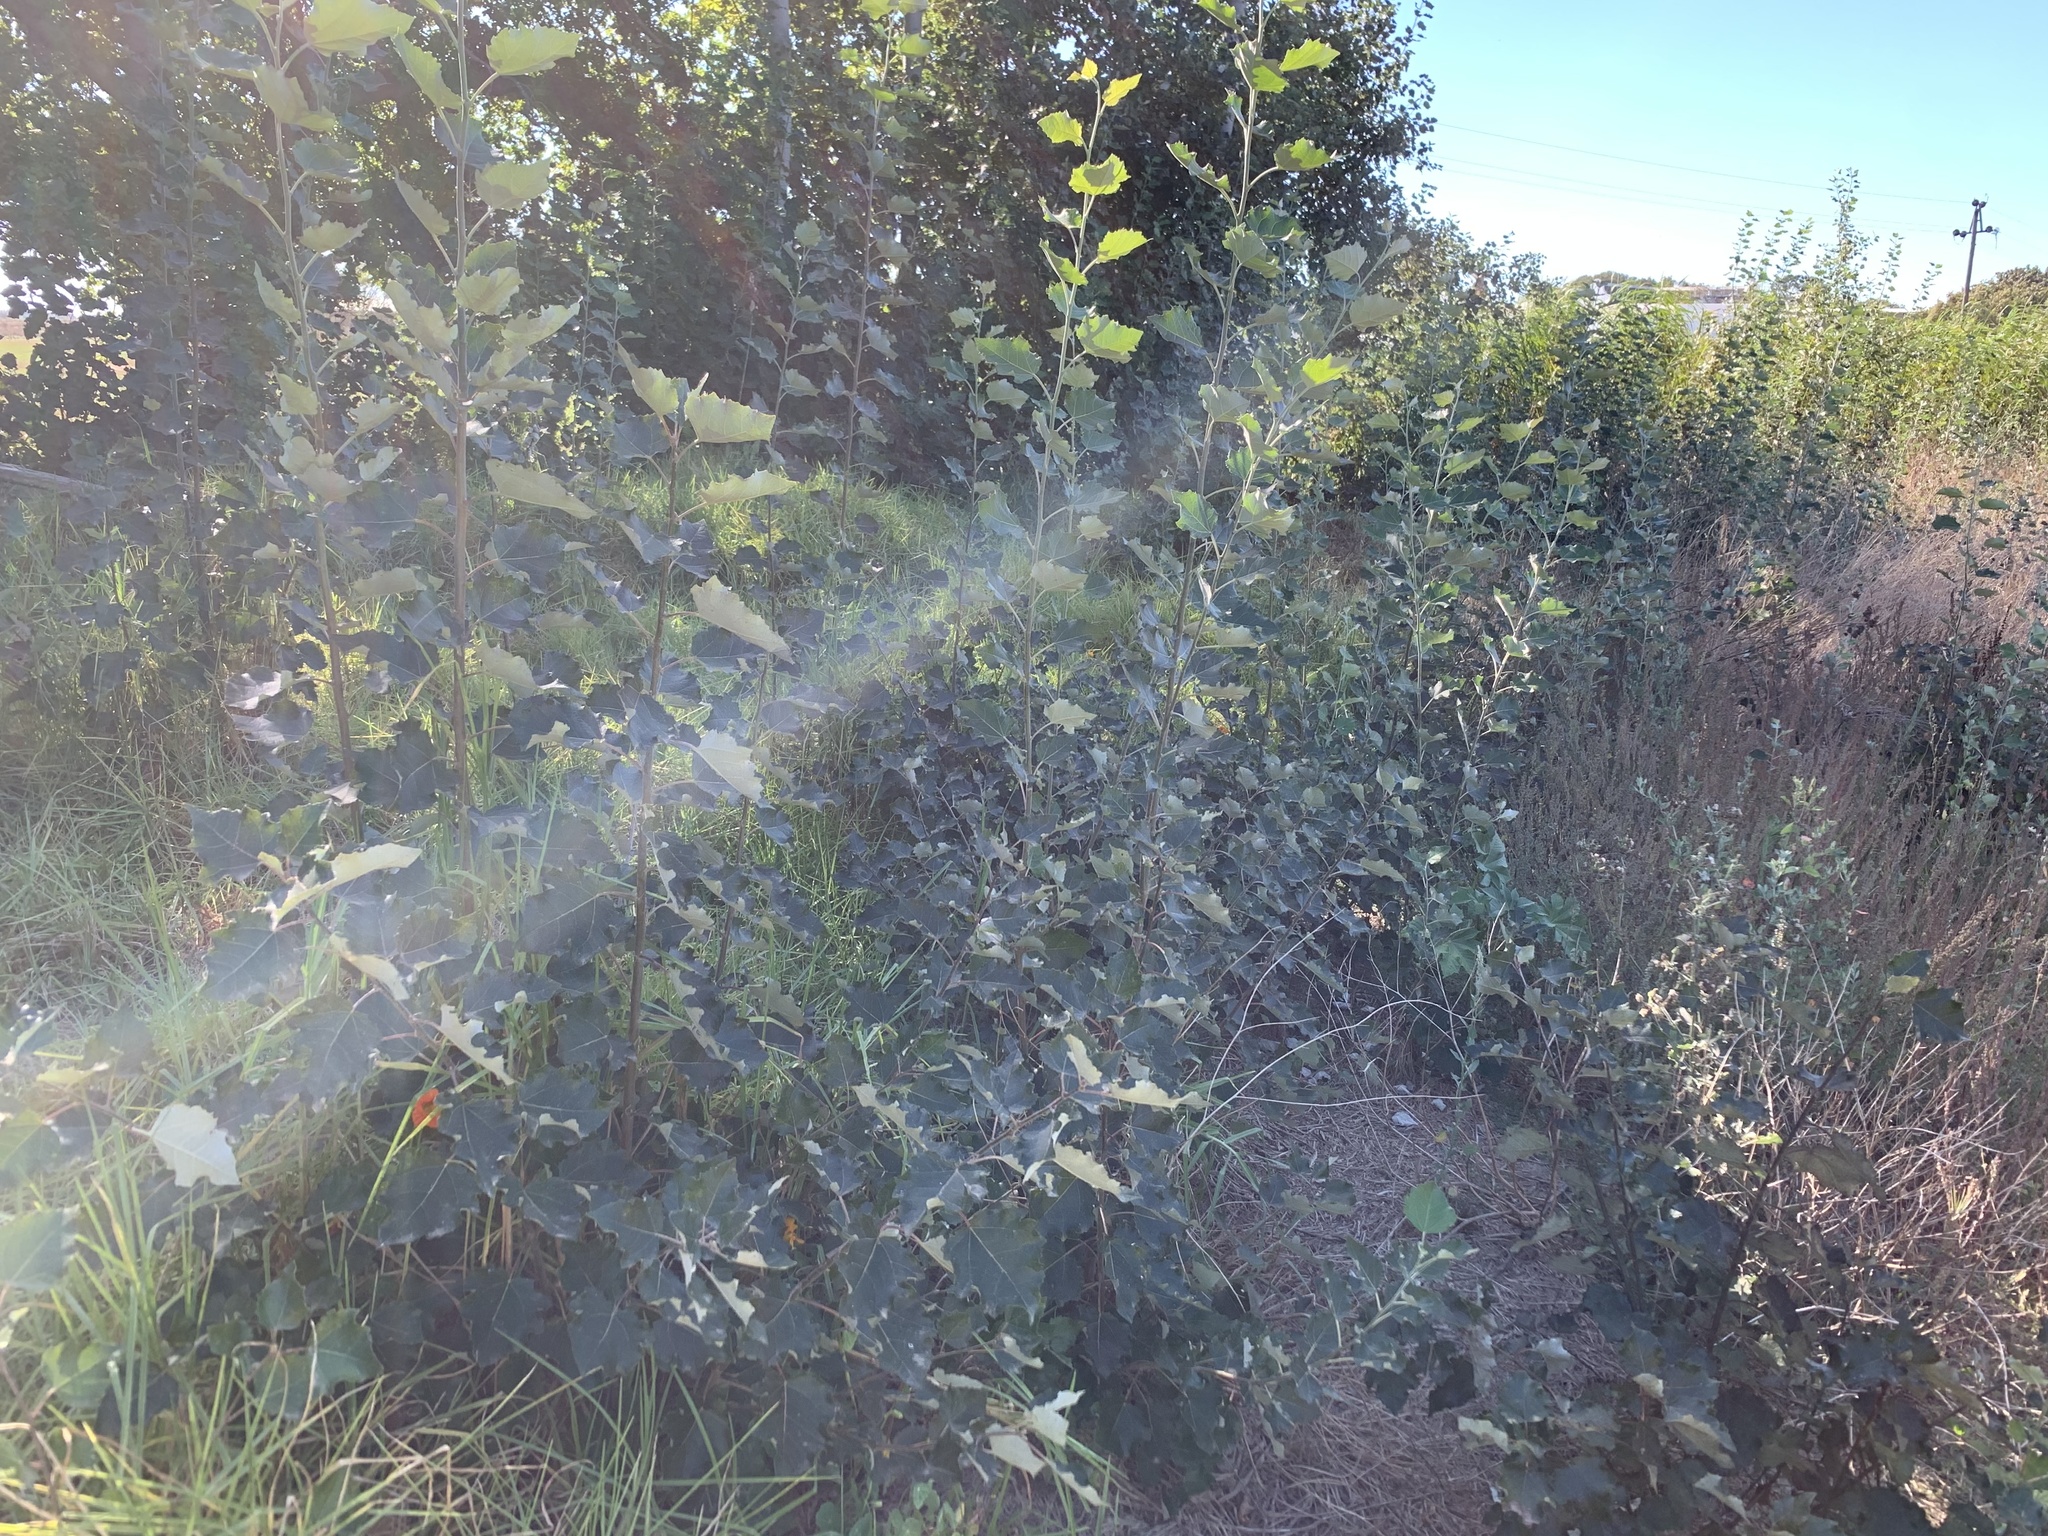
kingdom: Plantae
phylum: Tracheophyta
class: Magnoliopsida
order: Malpighiales
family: Salicaceae
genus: Populus
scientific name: Populus canescens
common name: Gray poplar
